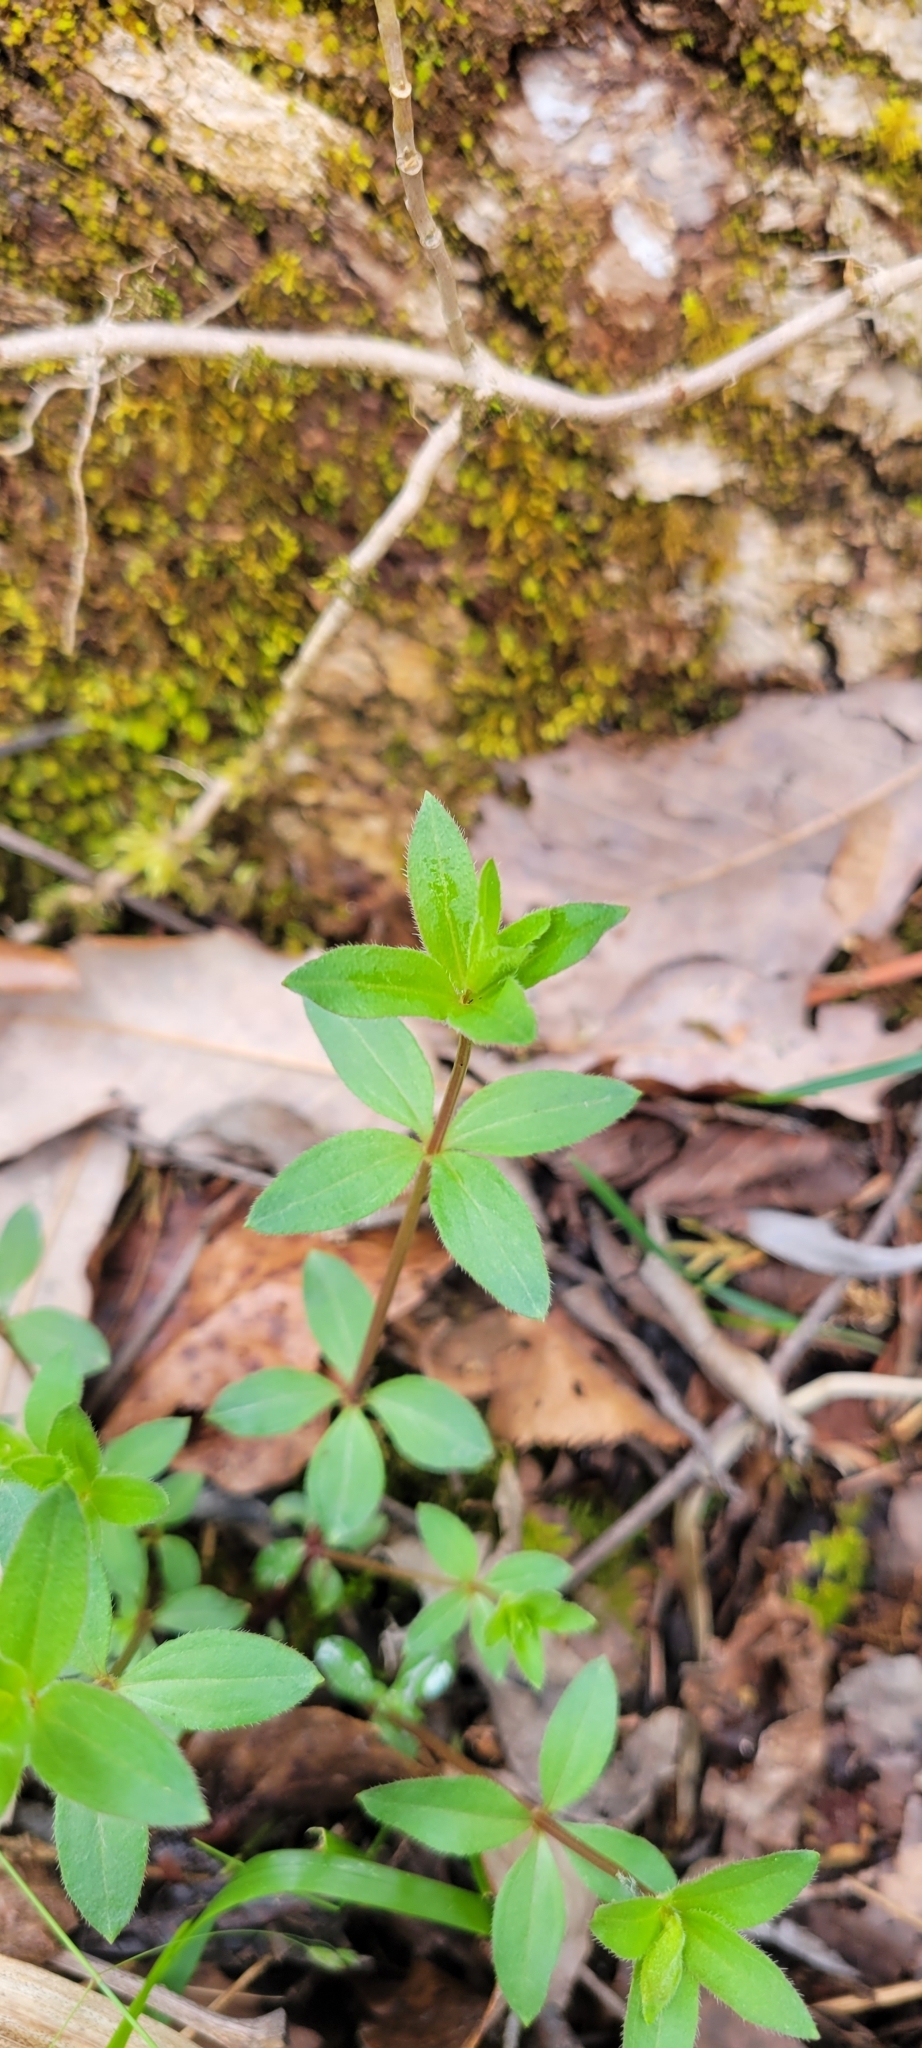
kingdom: Plantae
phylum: Tracheophyta
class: Magnoliopsida
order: Gentianales
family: Rubiaceae
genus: Galium
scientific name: Galium circaezans
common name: Forest bedstraw
